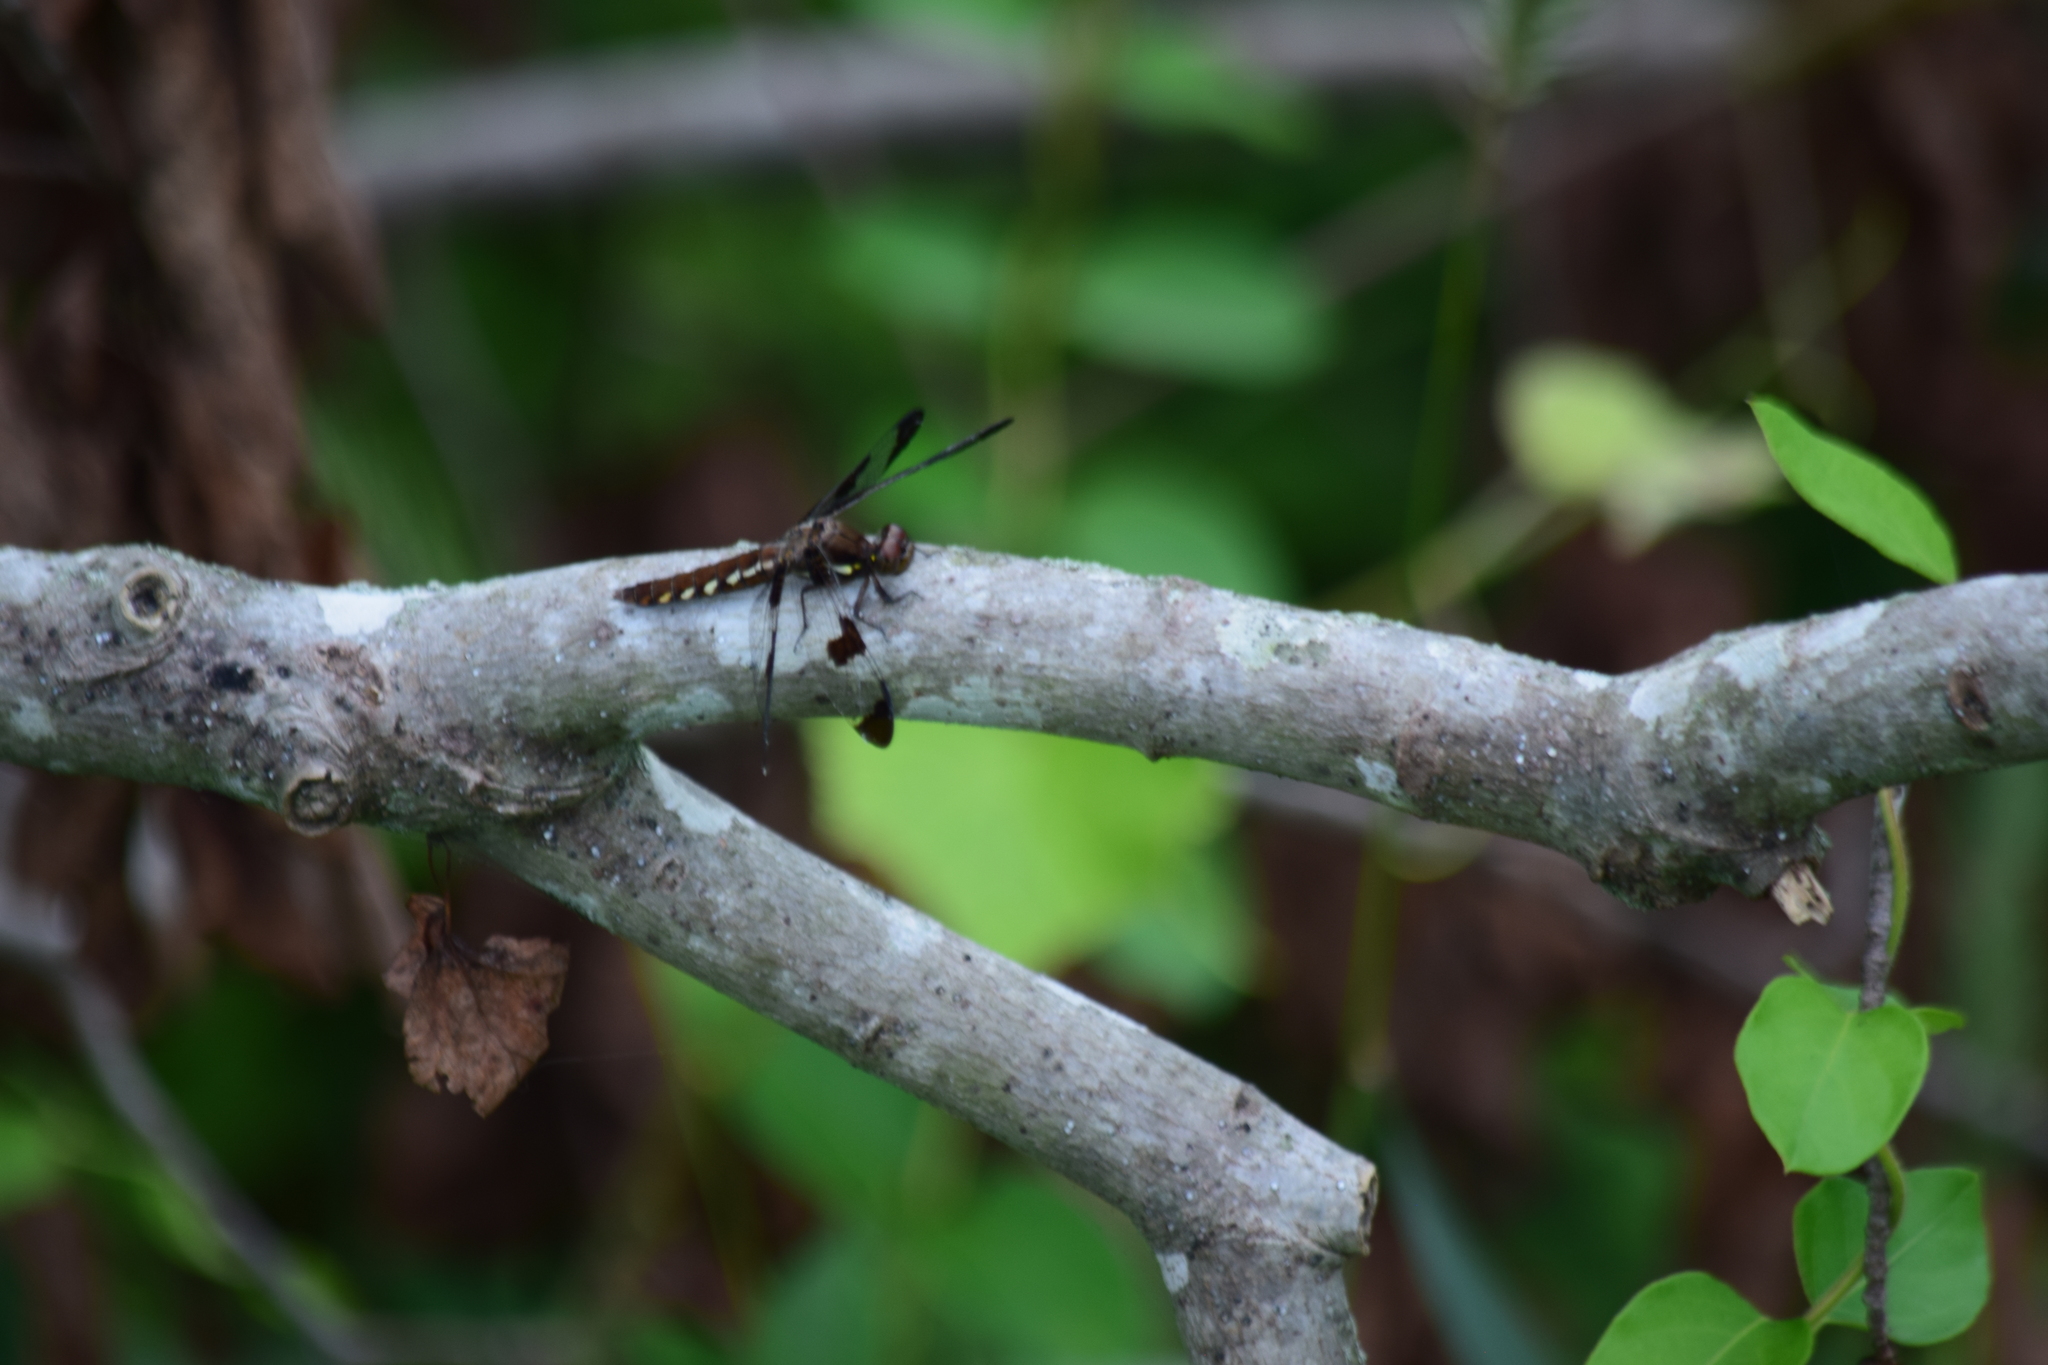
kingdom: Animalia
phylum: Arthropoda
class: Insecta
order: Odonata
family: Libellulidae
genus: Plathemis
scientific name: Plathemis lydia
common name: Common whitetail
